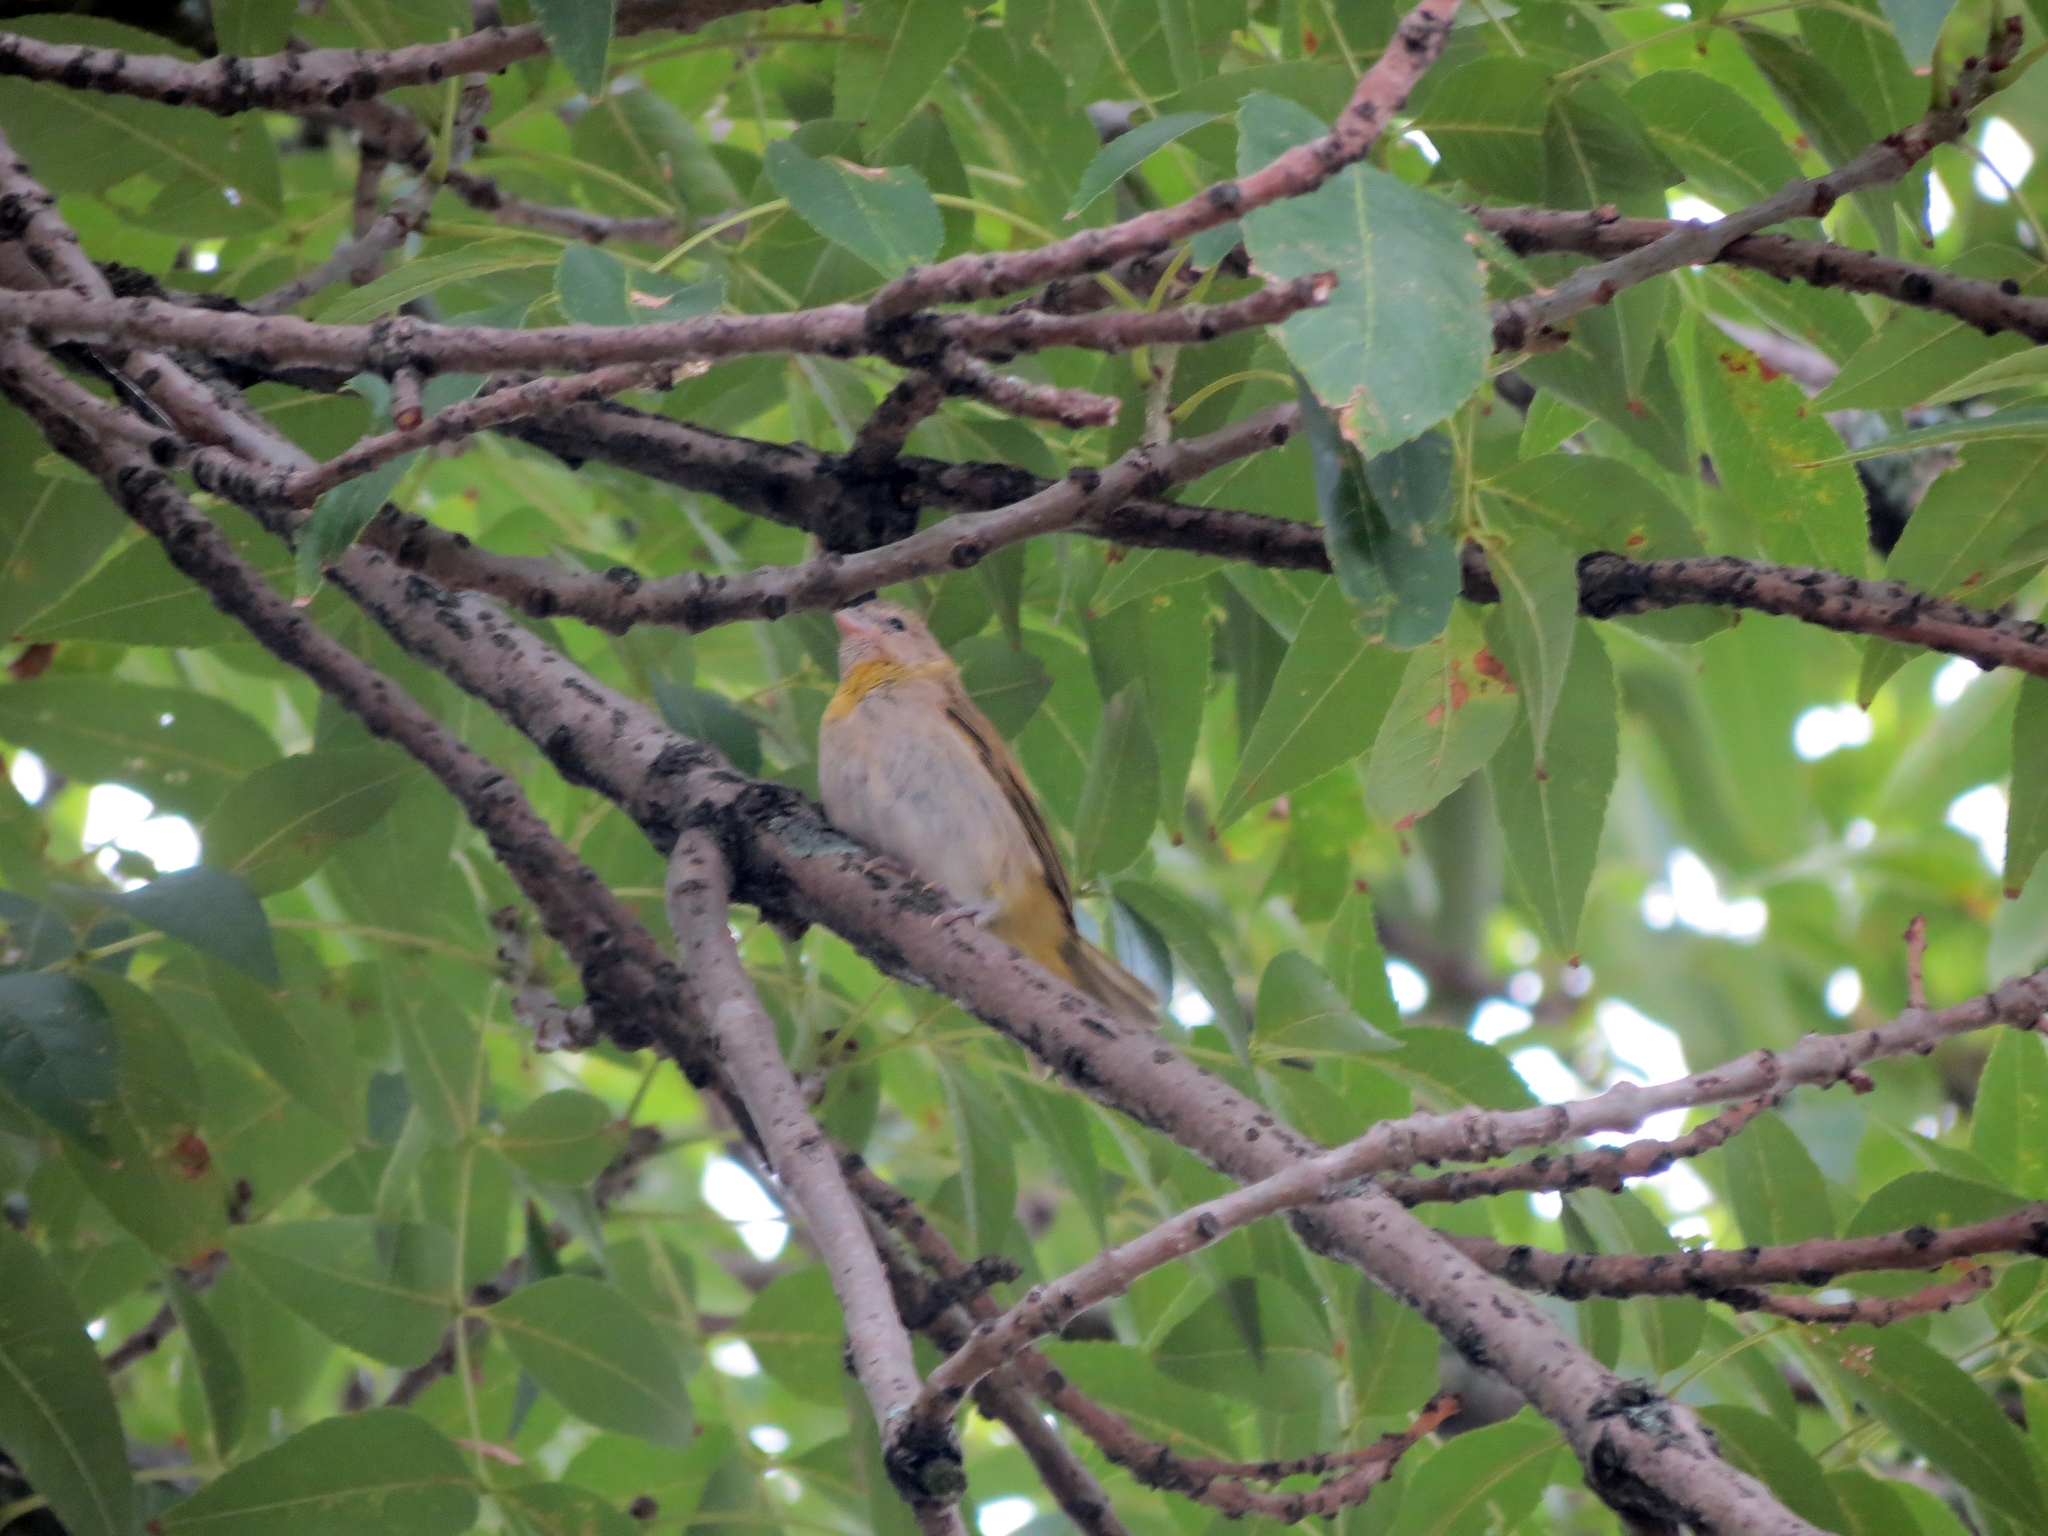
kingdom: Animalia
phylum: Chordata
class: Aves
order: Passeriformes
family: Thraupidae
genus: Sicalis
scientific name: Sicalis flaveola
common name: Saffron finch
